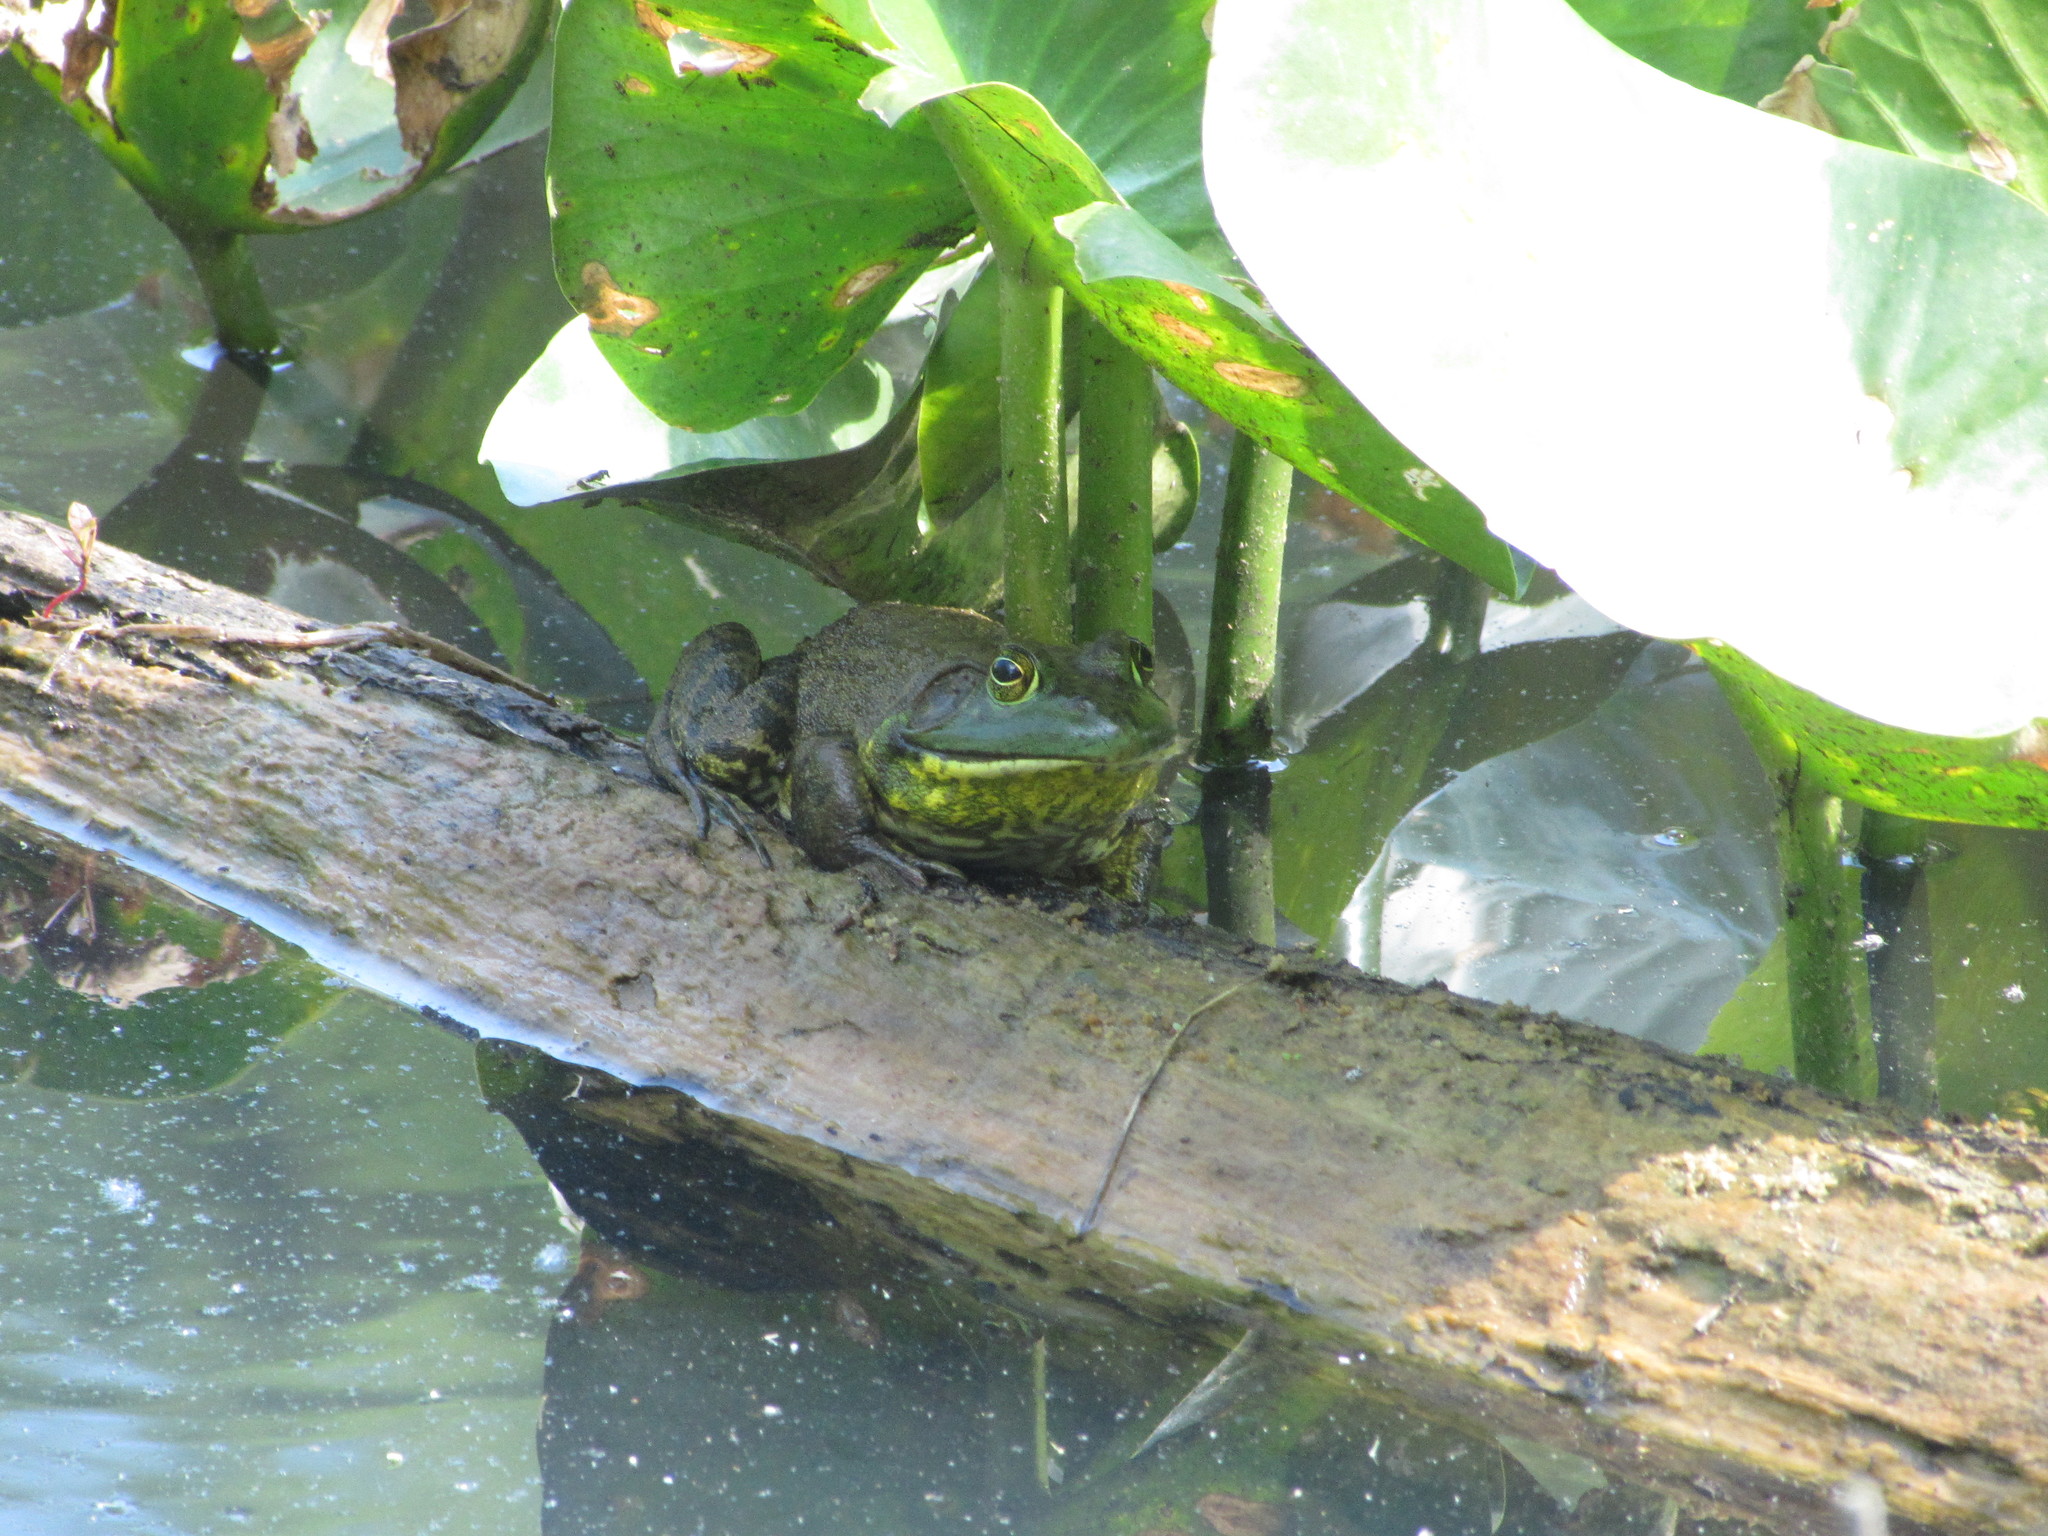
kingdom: Animalia
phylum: Chordata
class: Amphibia
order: Anura
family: Ranidae
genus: Lithobates
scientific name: Lithobates catesbeianus
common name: American bullfrog
